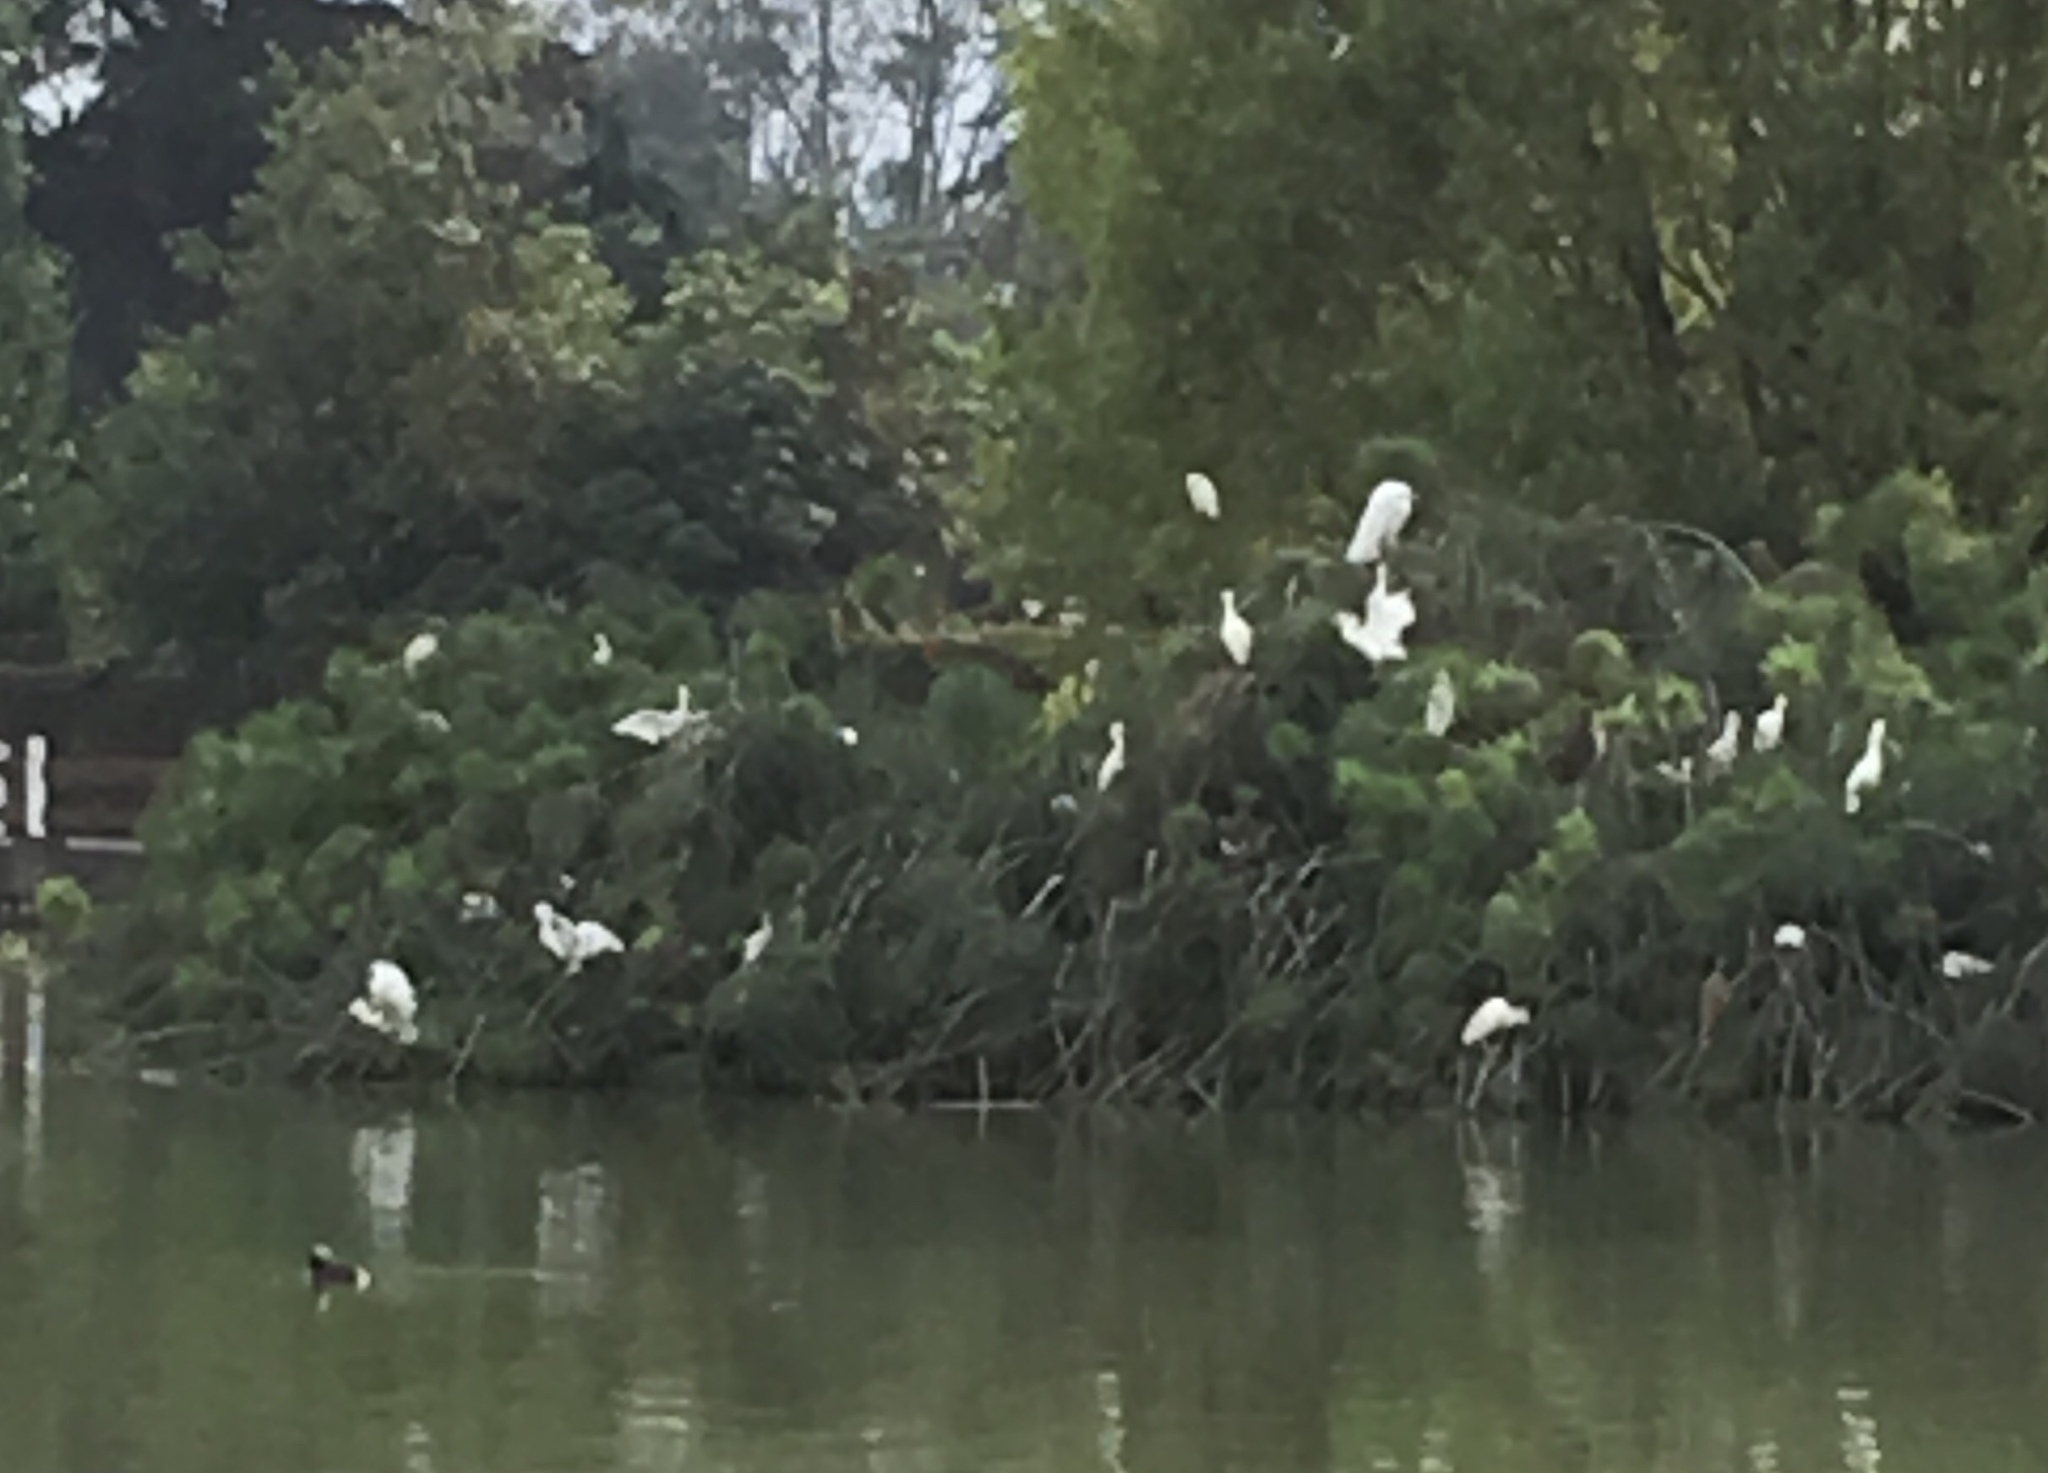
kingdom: Animalia
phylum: Chordata
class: Aves
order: Pelecaniformes
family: Ardeidae
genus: Bubulcus
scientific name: Bubulcus ibis
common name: Cattle egret
